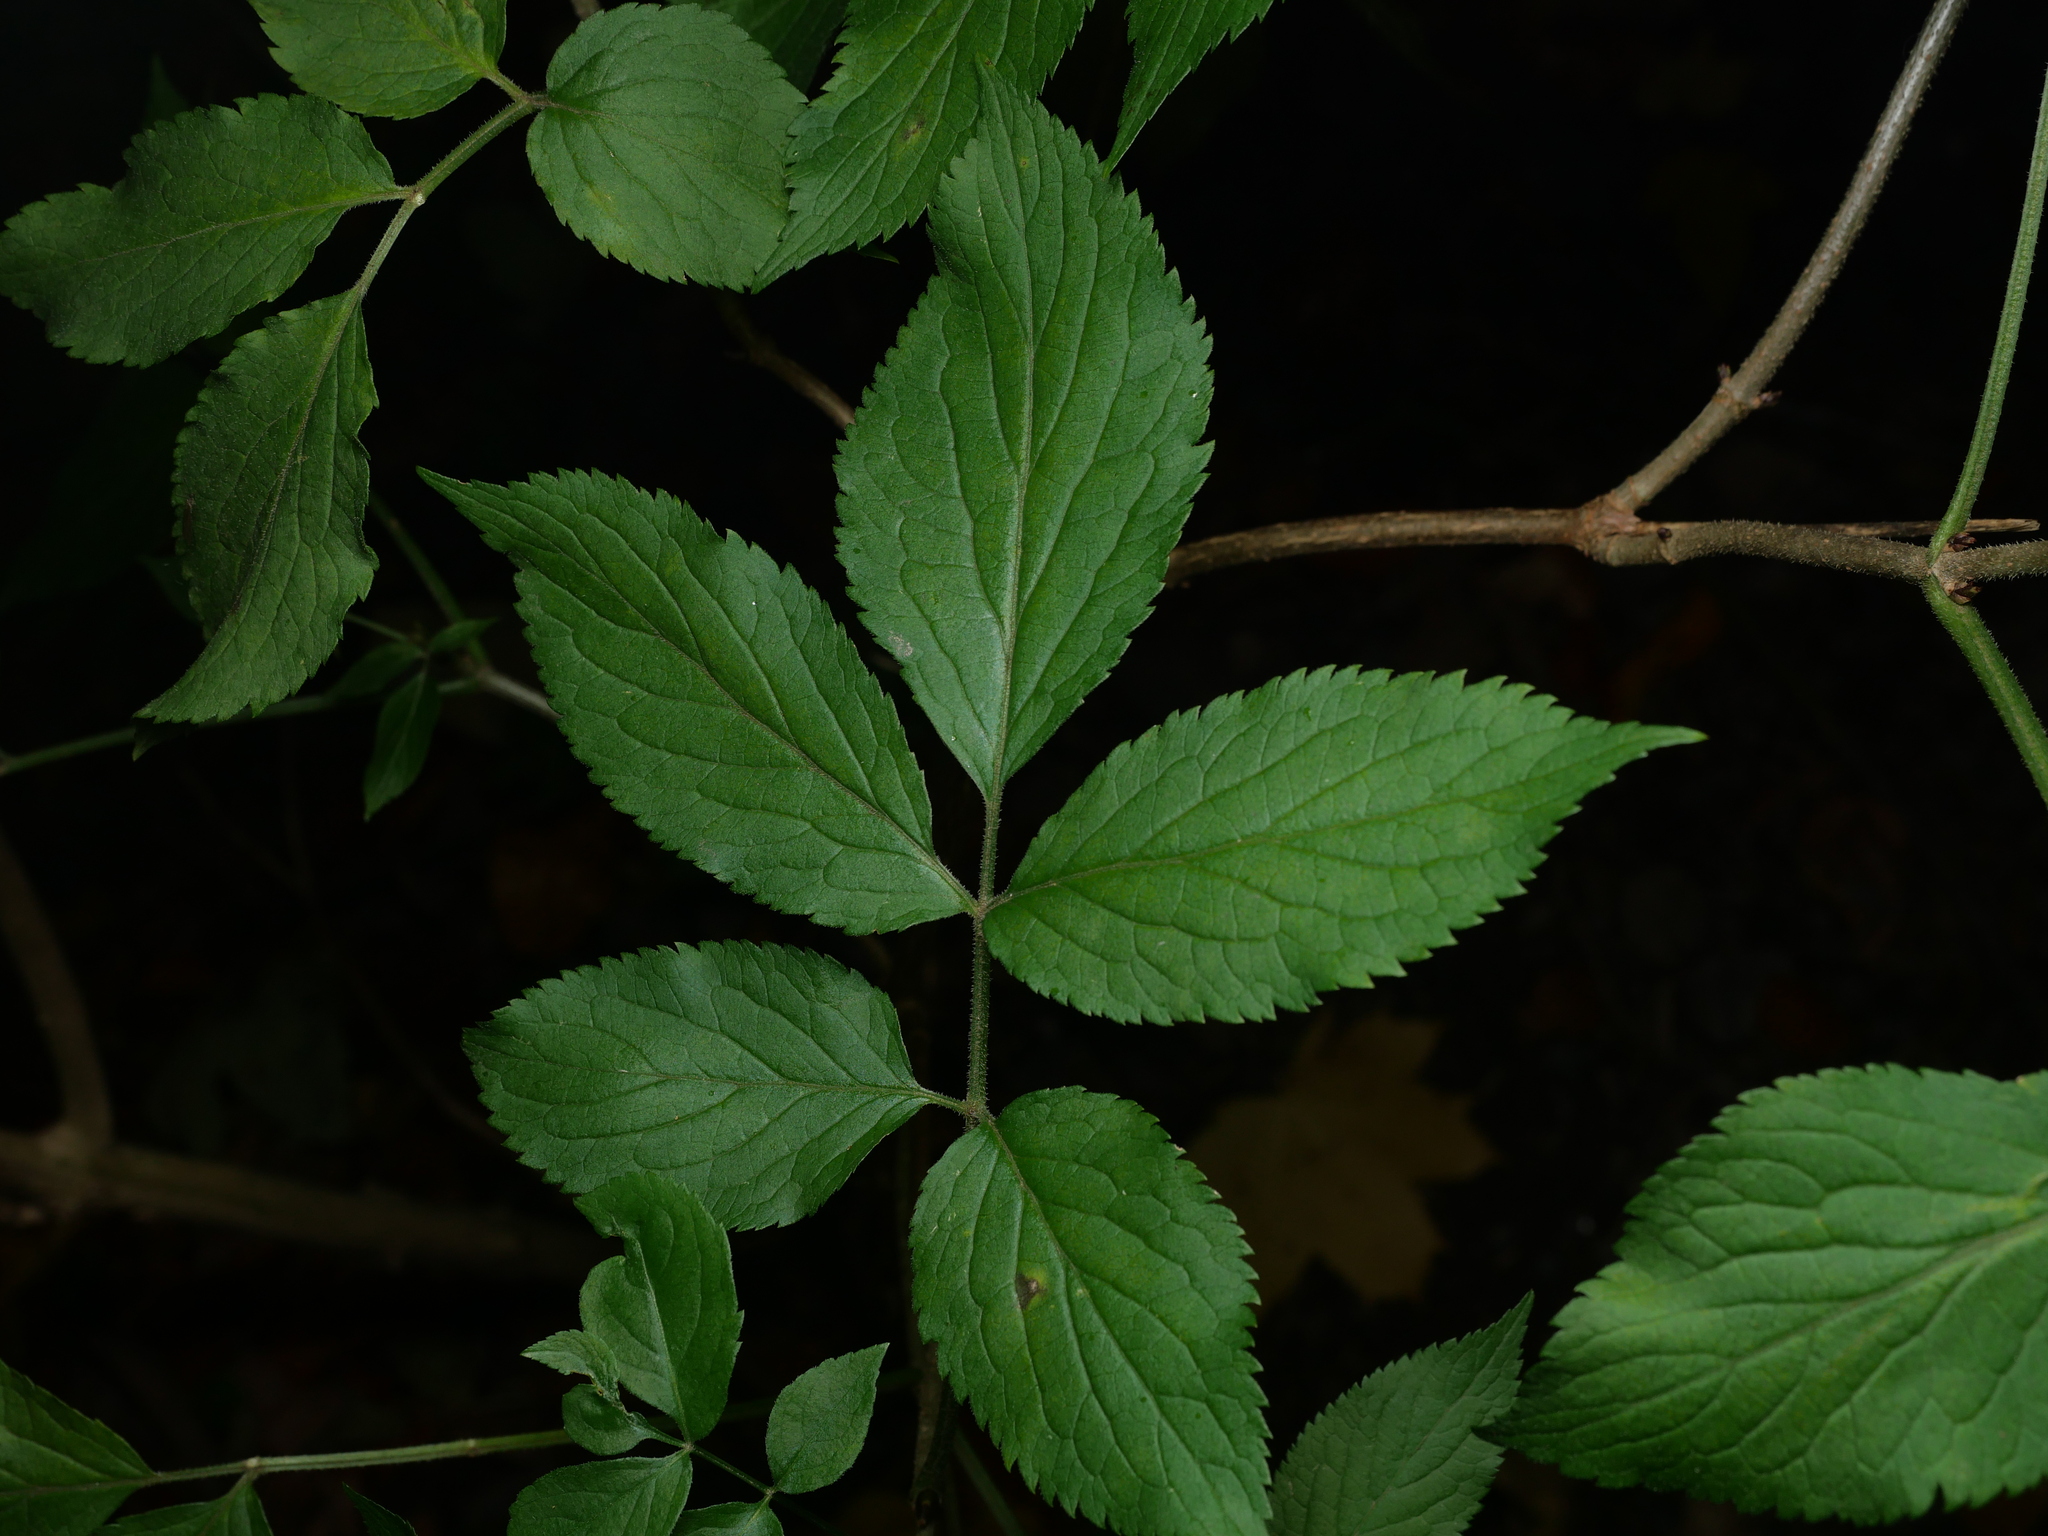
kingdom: Plantae
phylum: Tracheophyta
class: Magnoliopsida
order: Dipsacales
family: Viburnaceae
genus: Sambucus
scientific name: Sambucus nigra
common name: Elder
